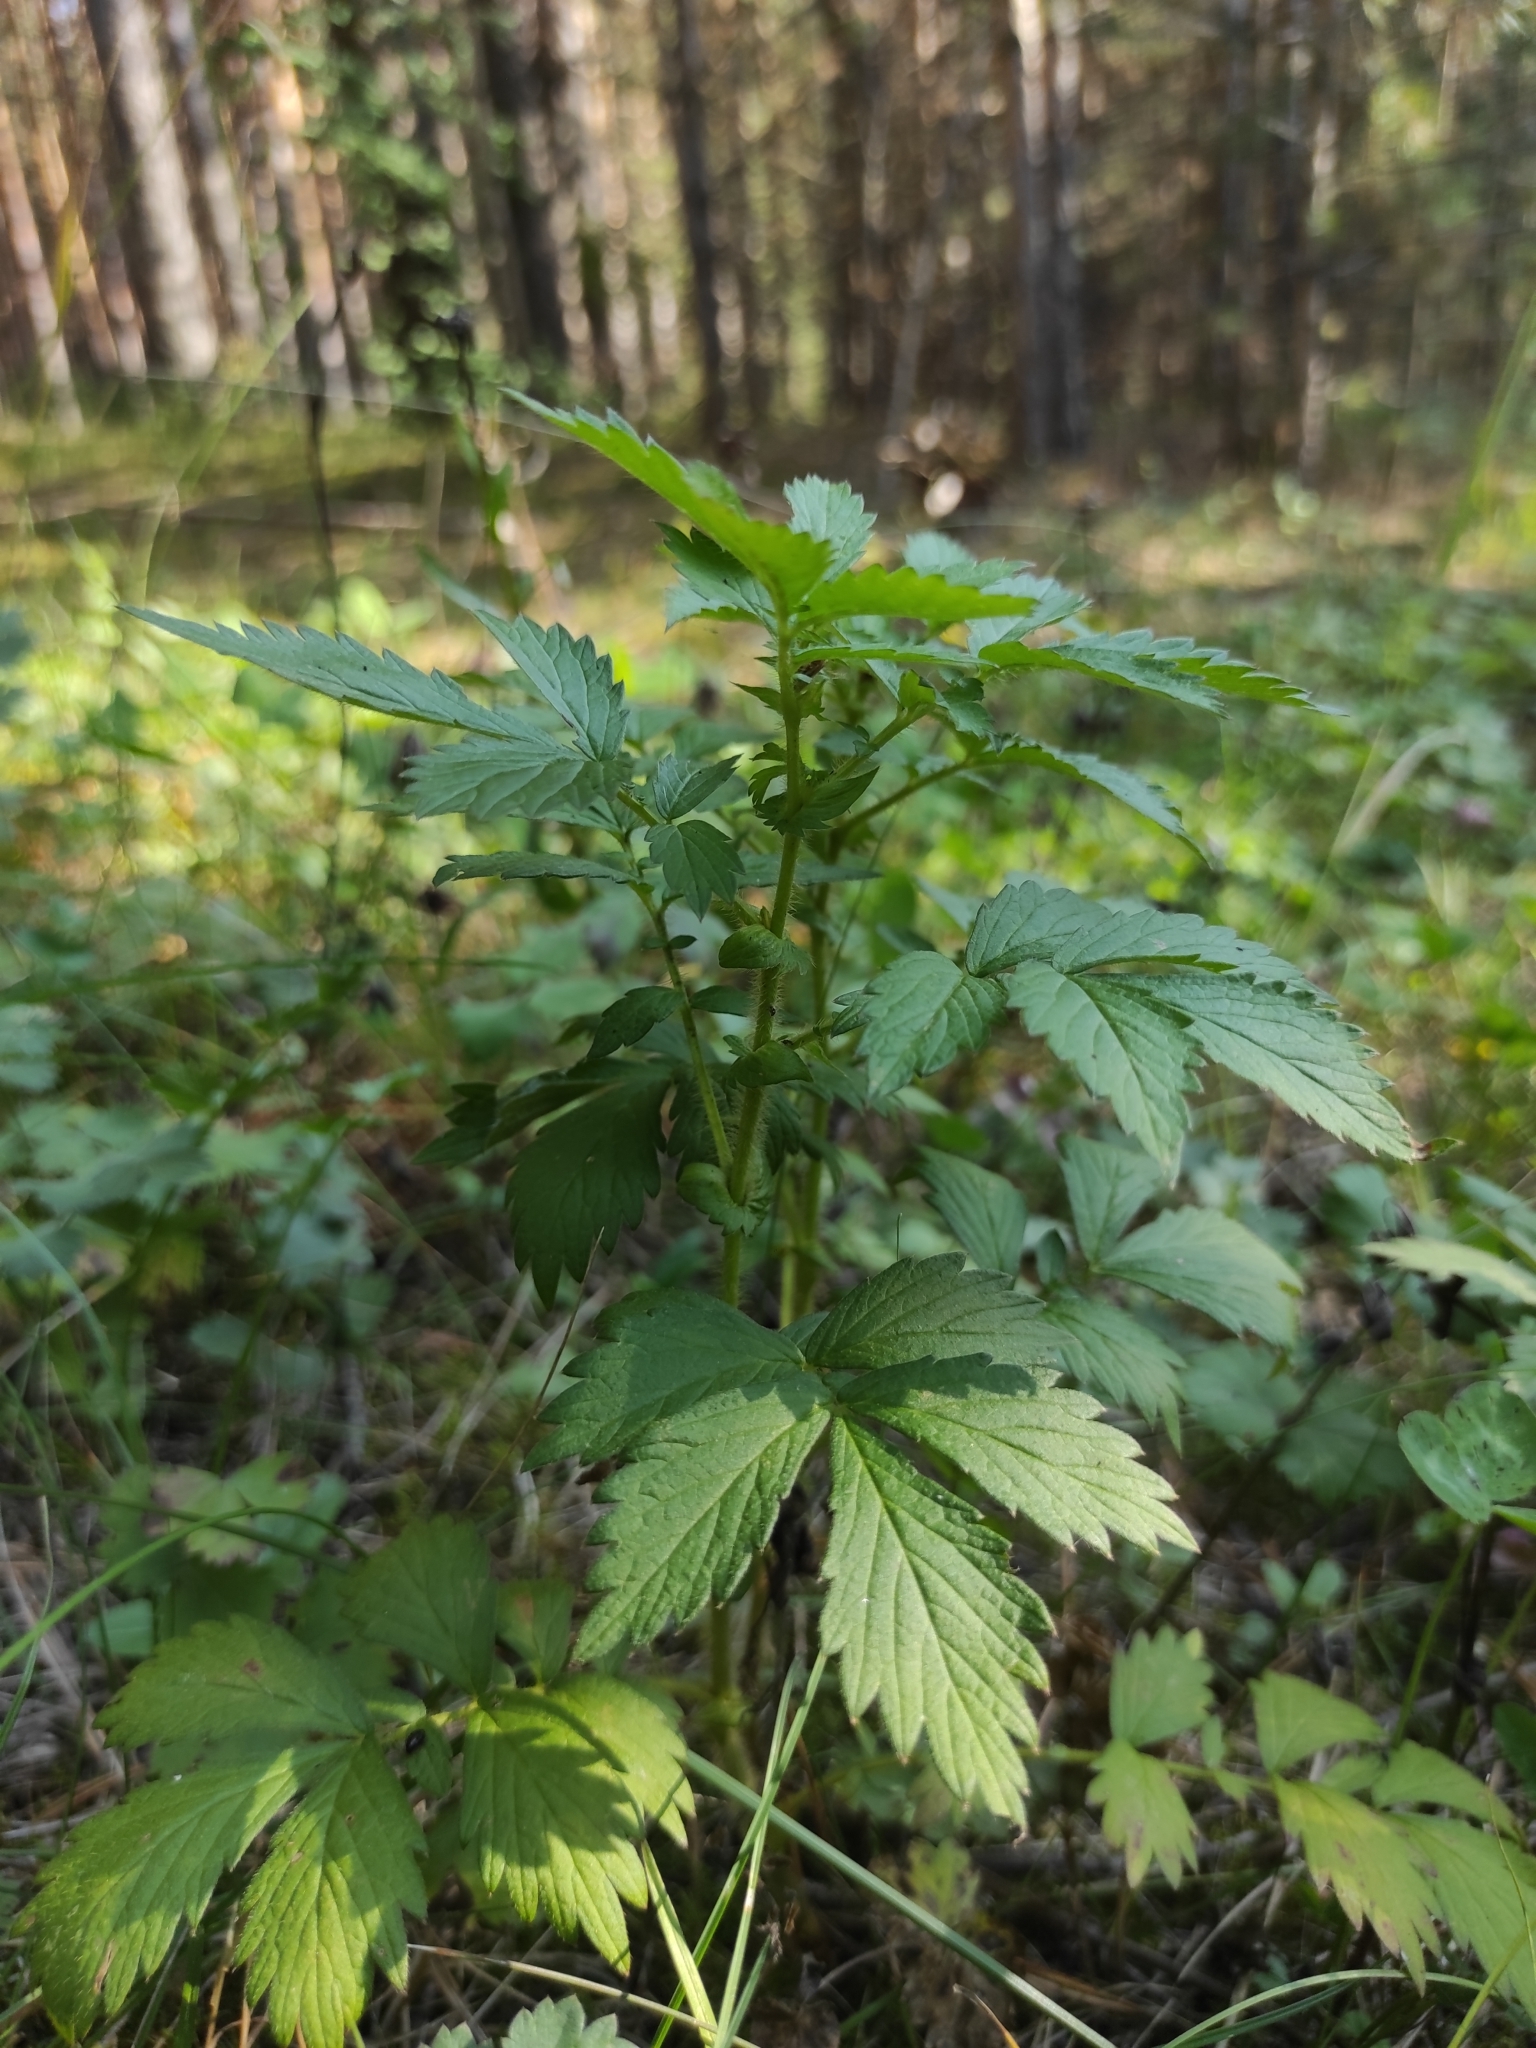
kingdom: Plantae
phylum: Tracheophyta
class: Magnoliopsida
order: Rosales
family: Rosaceae
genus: Agrimonia
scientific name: Agrimonia pilosa
